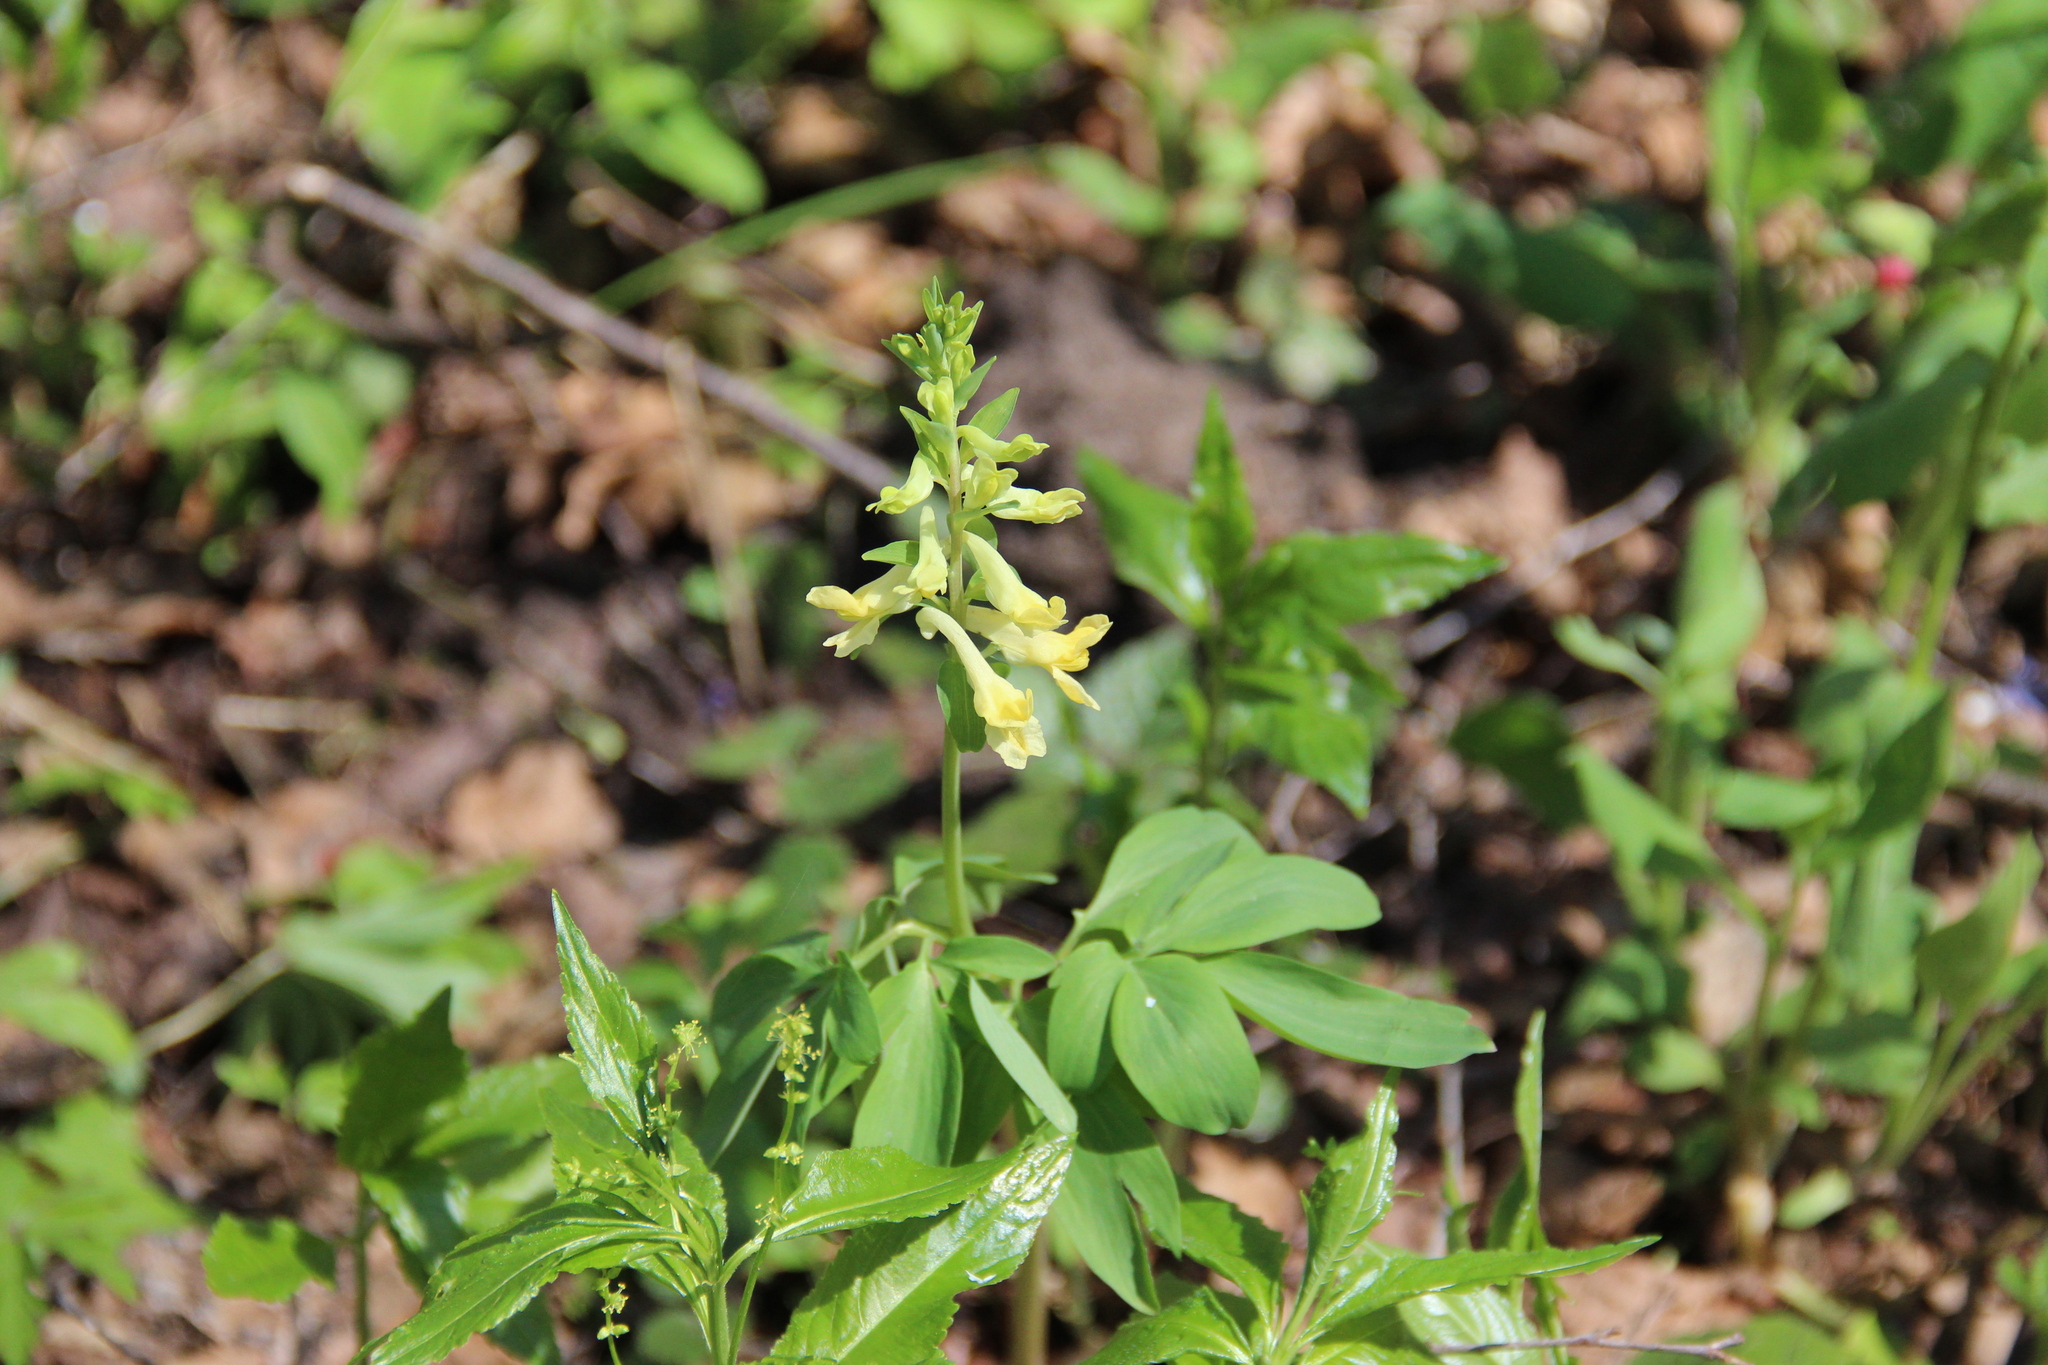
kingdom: Plantae
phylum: Tracheophyta
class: Magnoliopsida
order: Ranunculales
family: Papaveraceae
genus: Corydalis
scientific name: Corydalis cava
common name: Hollowroot
